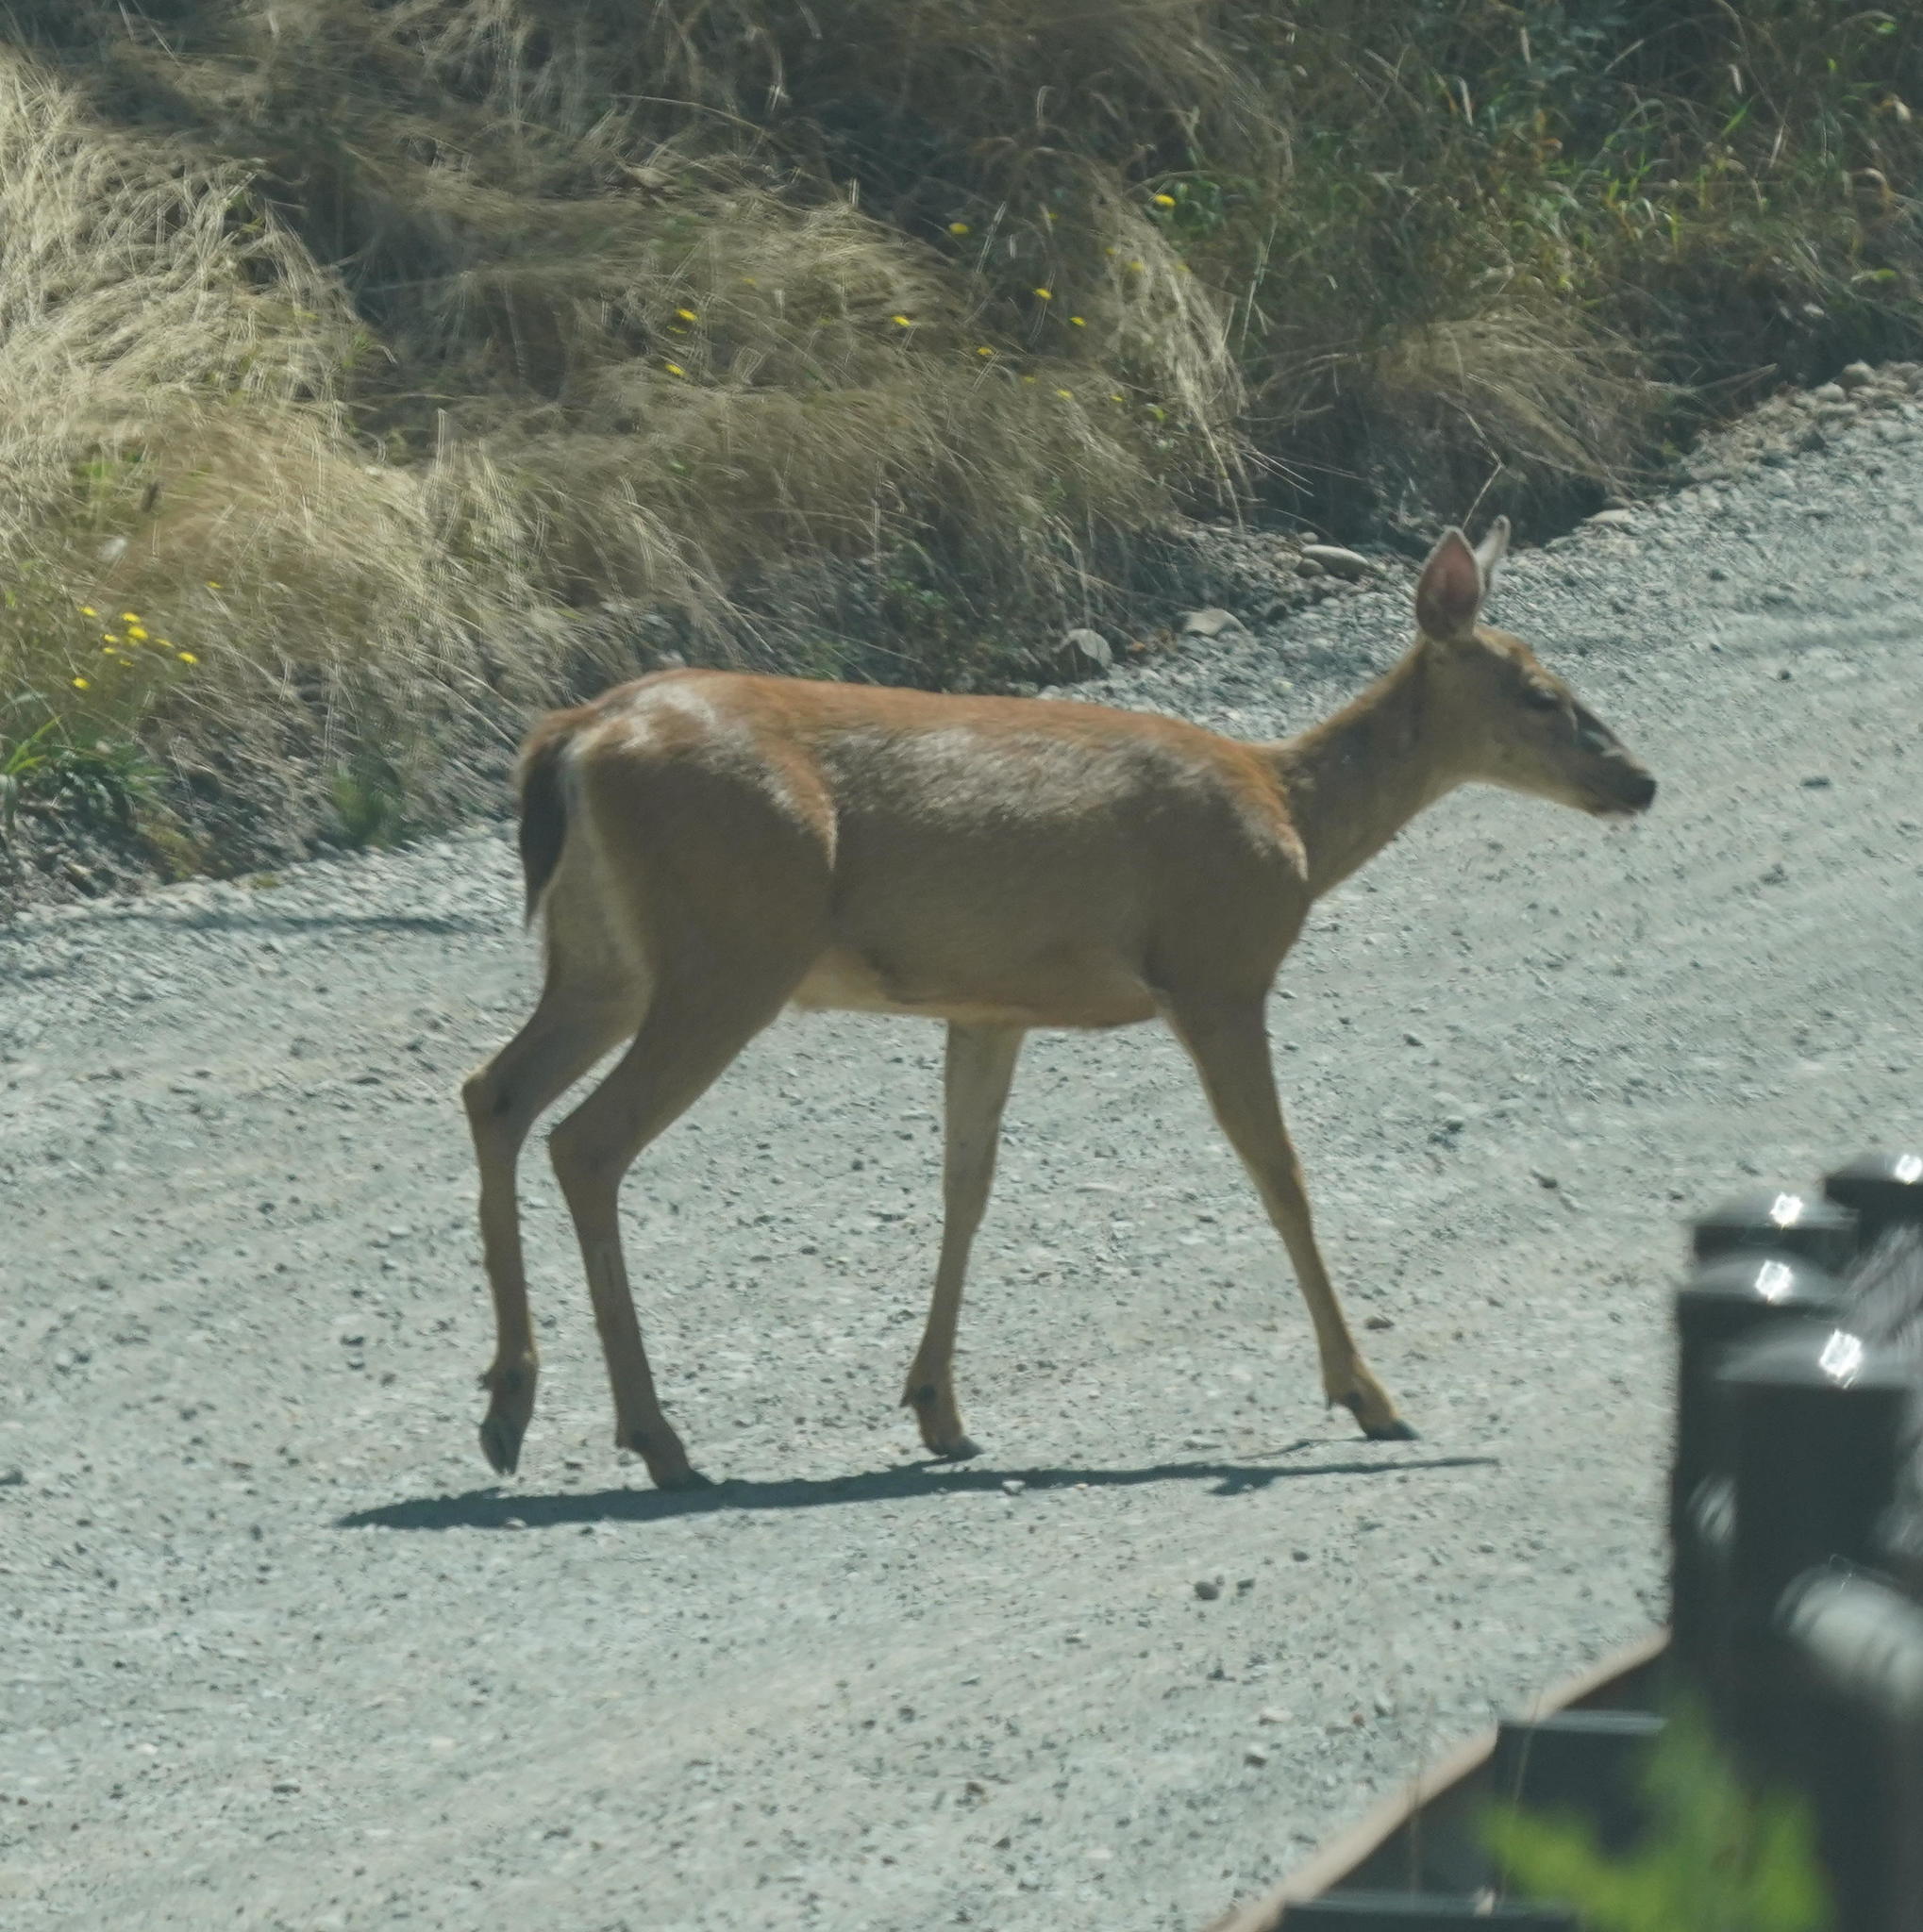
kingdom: Animalia
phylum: Chordata
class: Mammalia
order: Artiodactyla
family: Cervidae
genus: Odocoileus
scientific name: Odocoileus hemionus
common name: Mule deer
